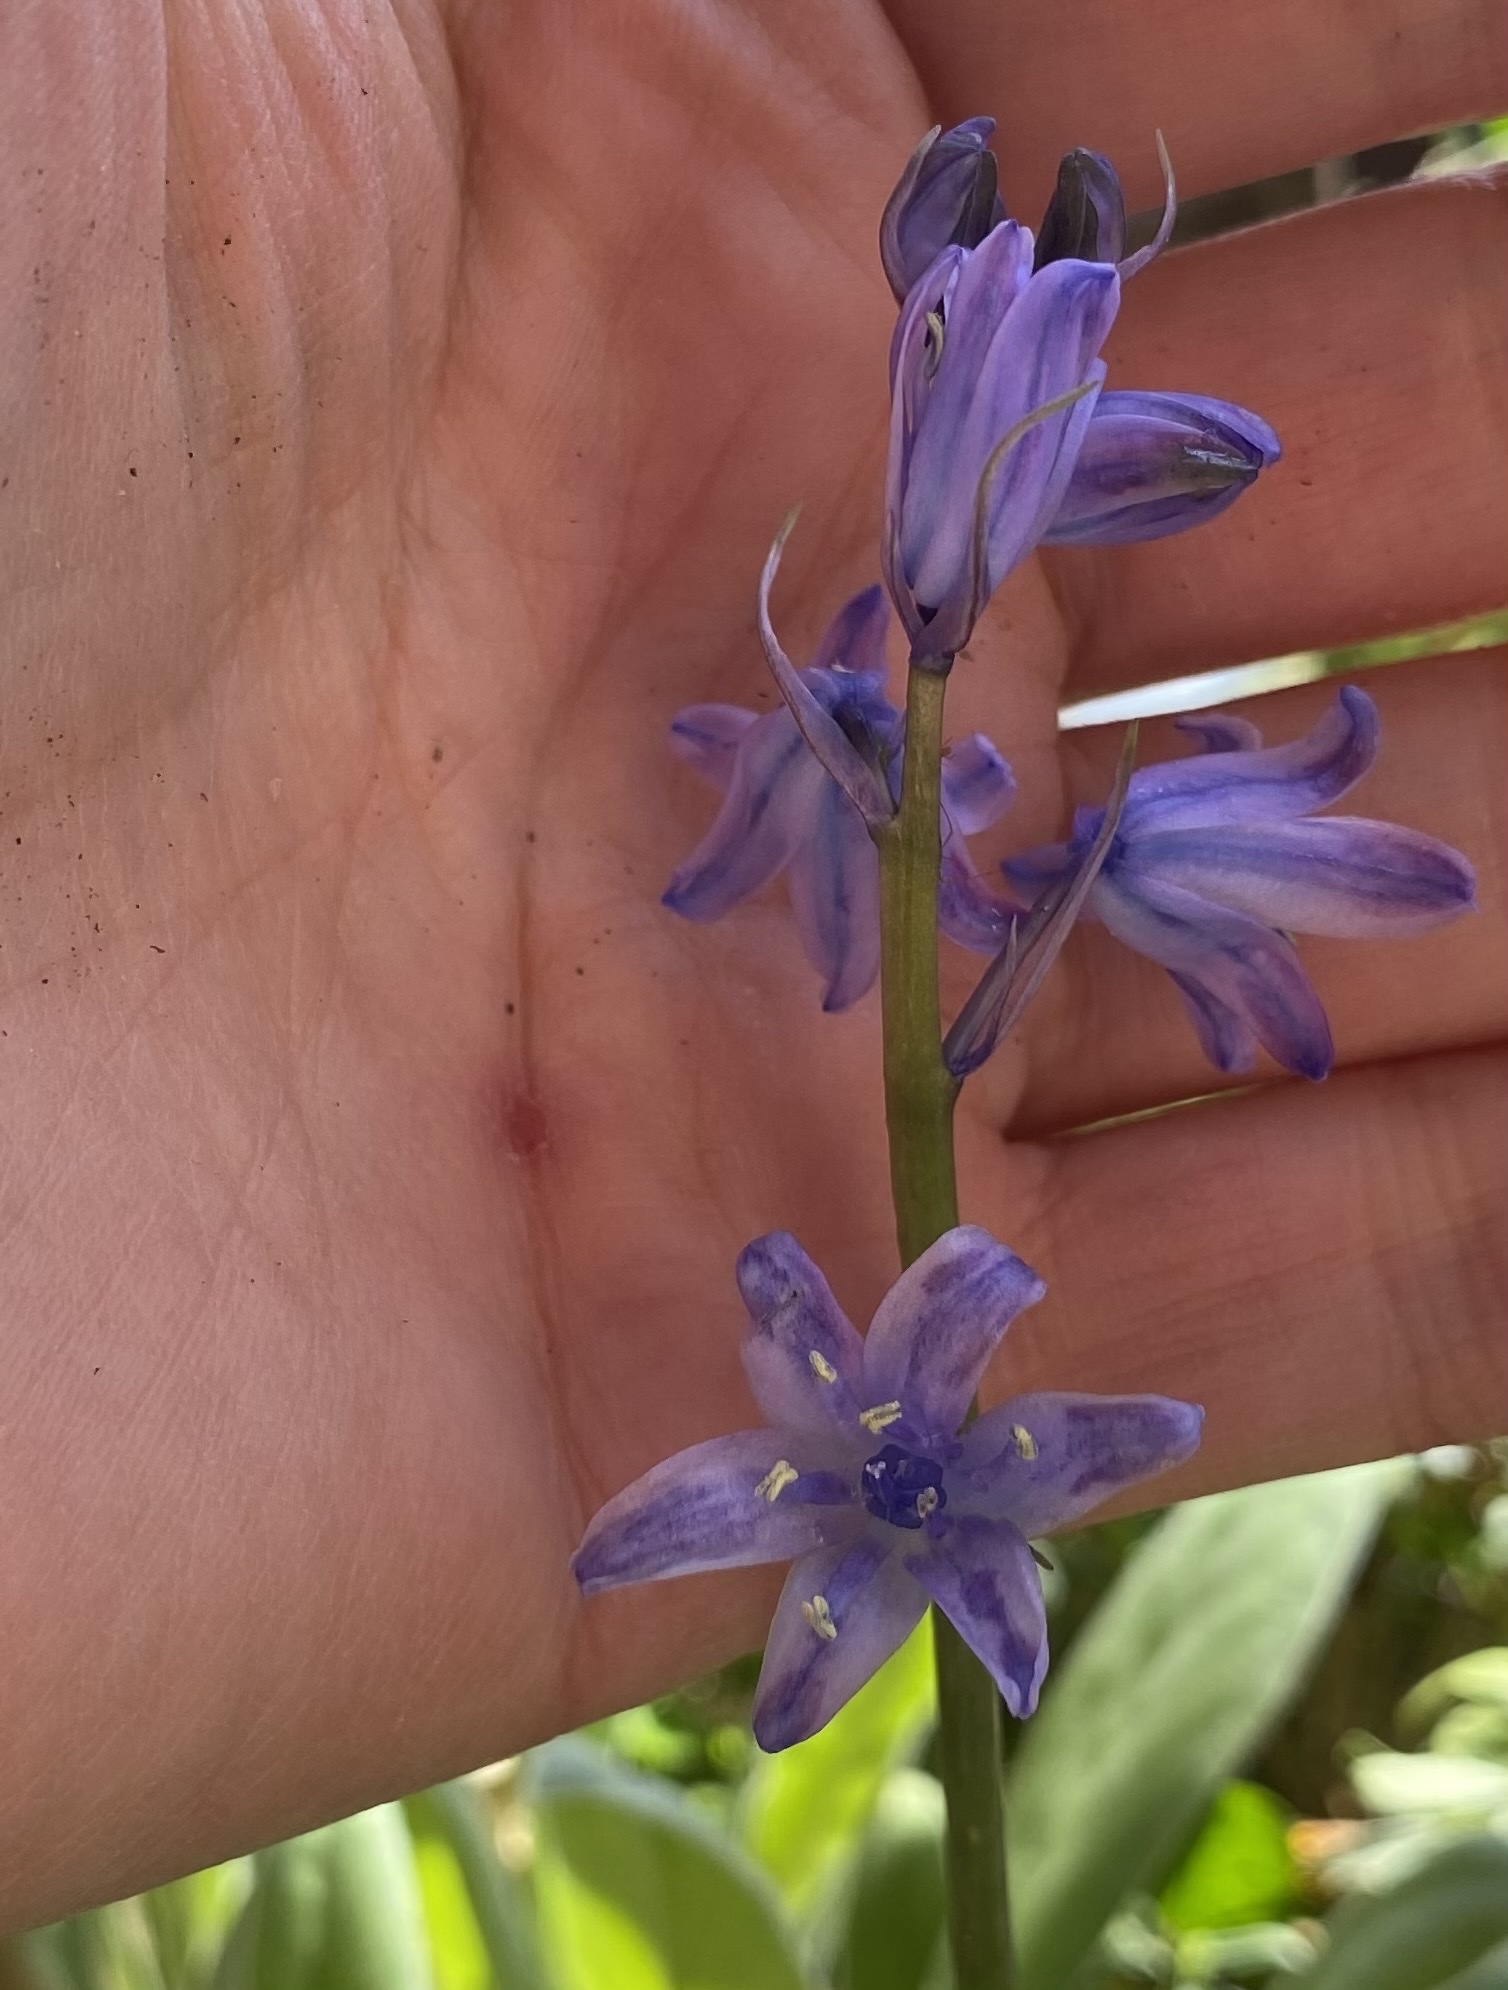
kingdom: Plantae
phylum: Tracheophyta
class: Liliopsida
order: Asparagales
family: Asparagaceae
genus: Hyacinthoides
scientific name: Hyacinthoides hispanica
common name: Spanish bluebell
